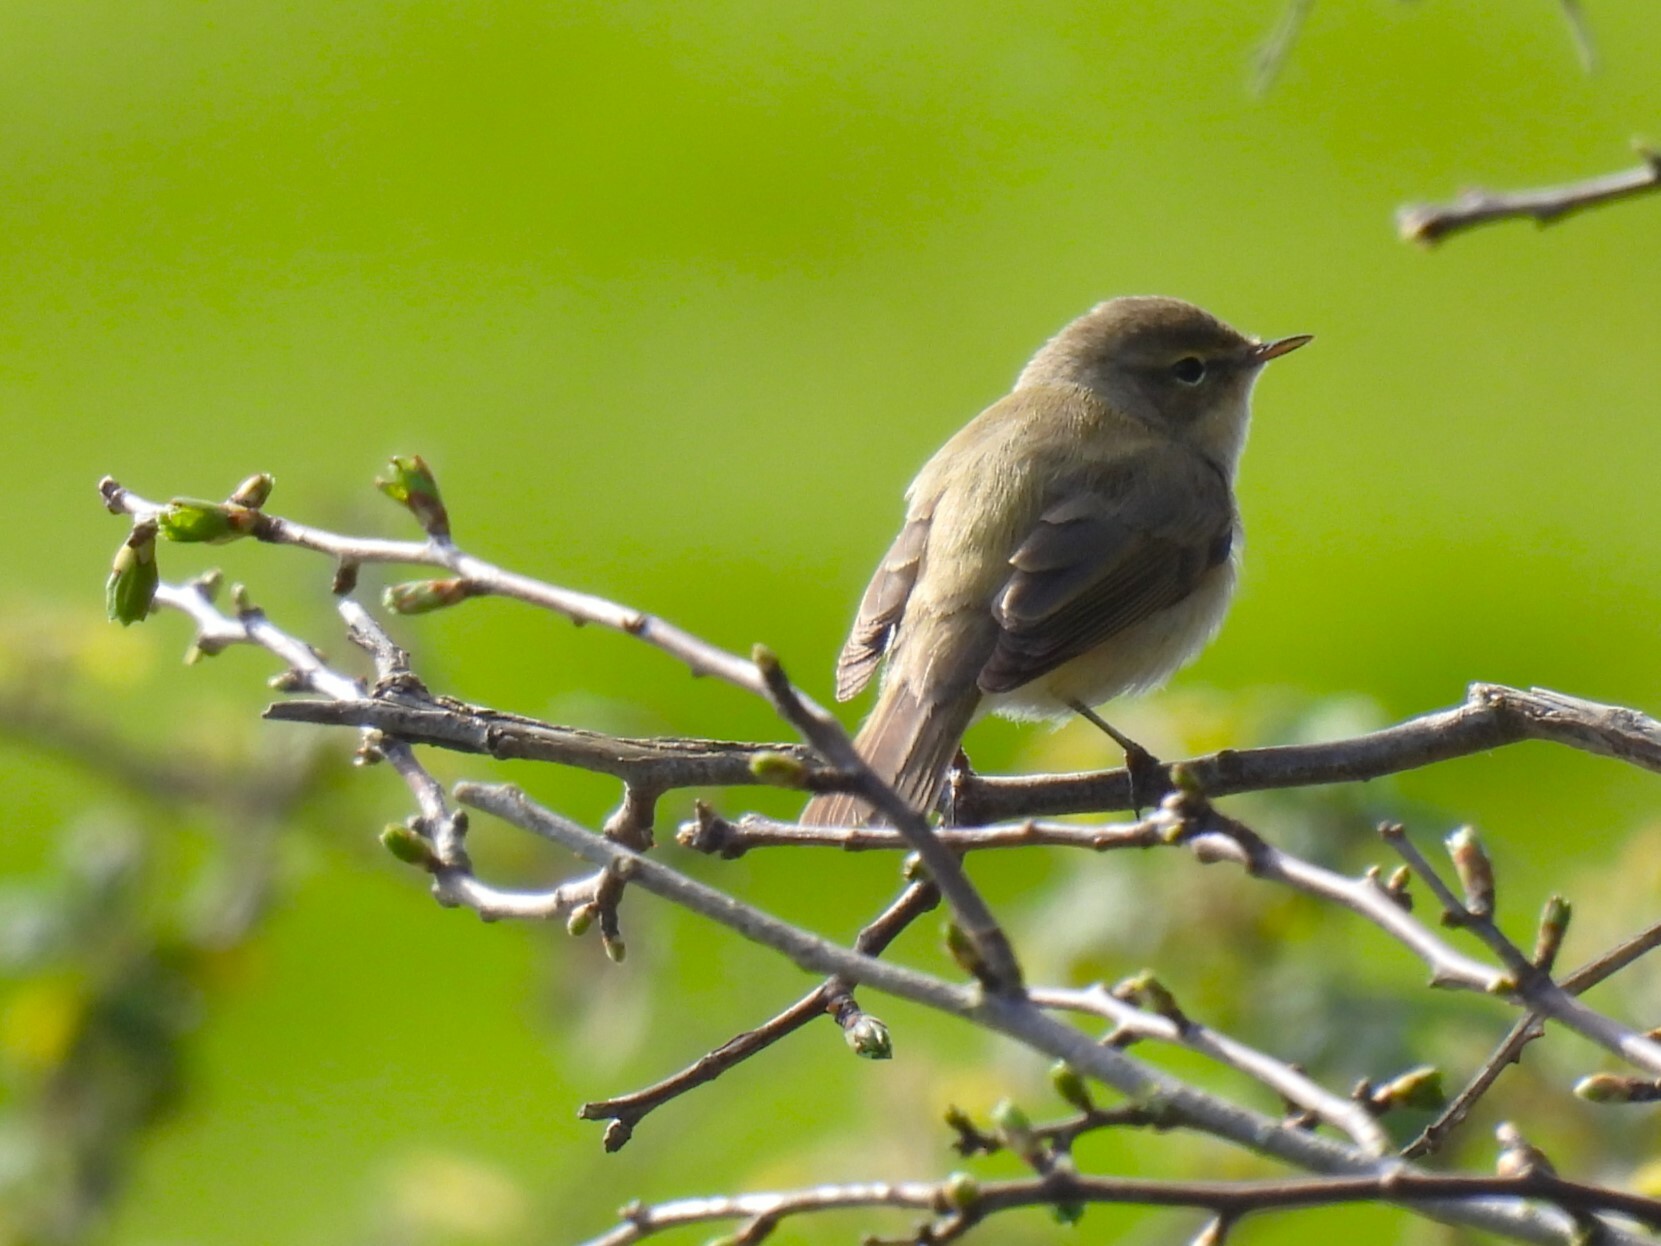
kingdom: Animalia
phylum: Chordata
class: Aves
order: Passeriformes
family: Phylloscopidae
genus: Phylloscopus
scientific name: Phylloscopus collybita
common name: Common chiffchaff
